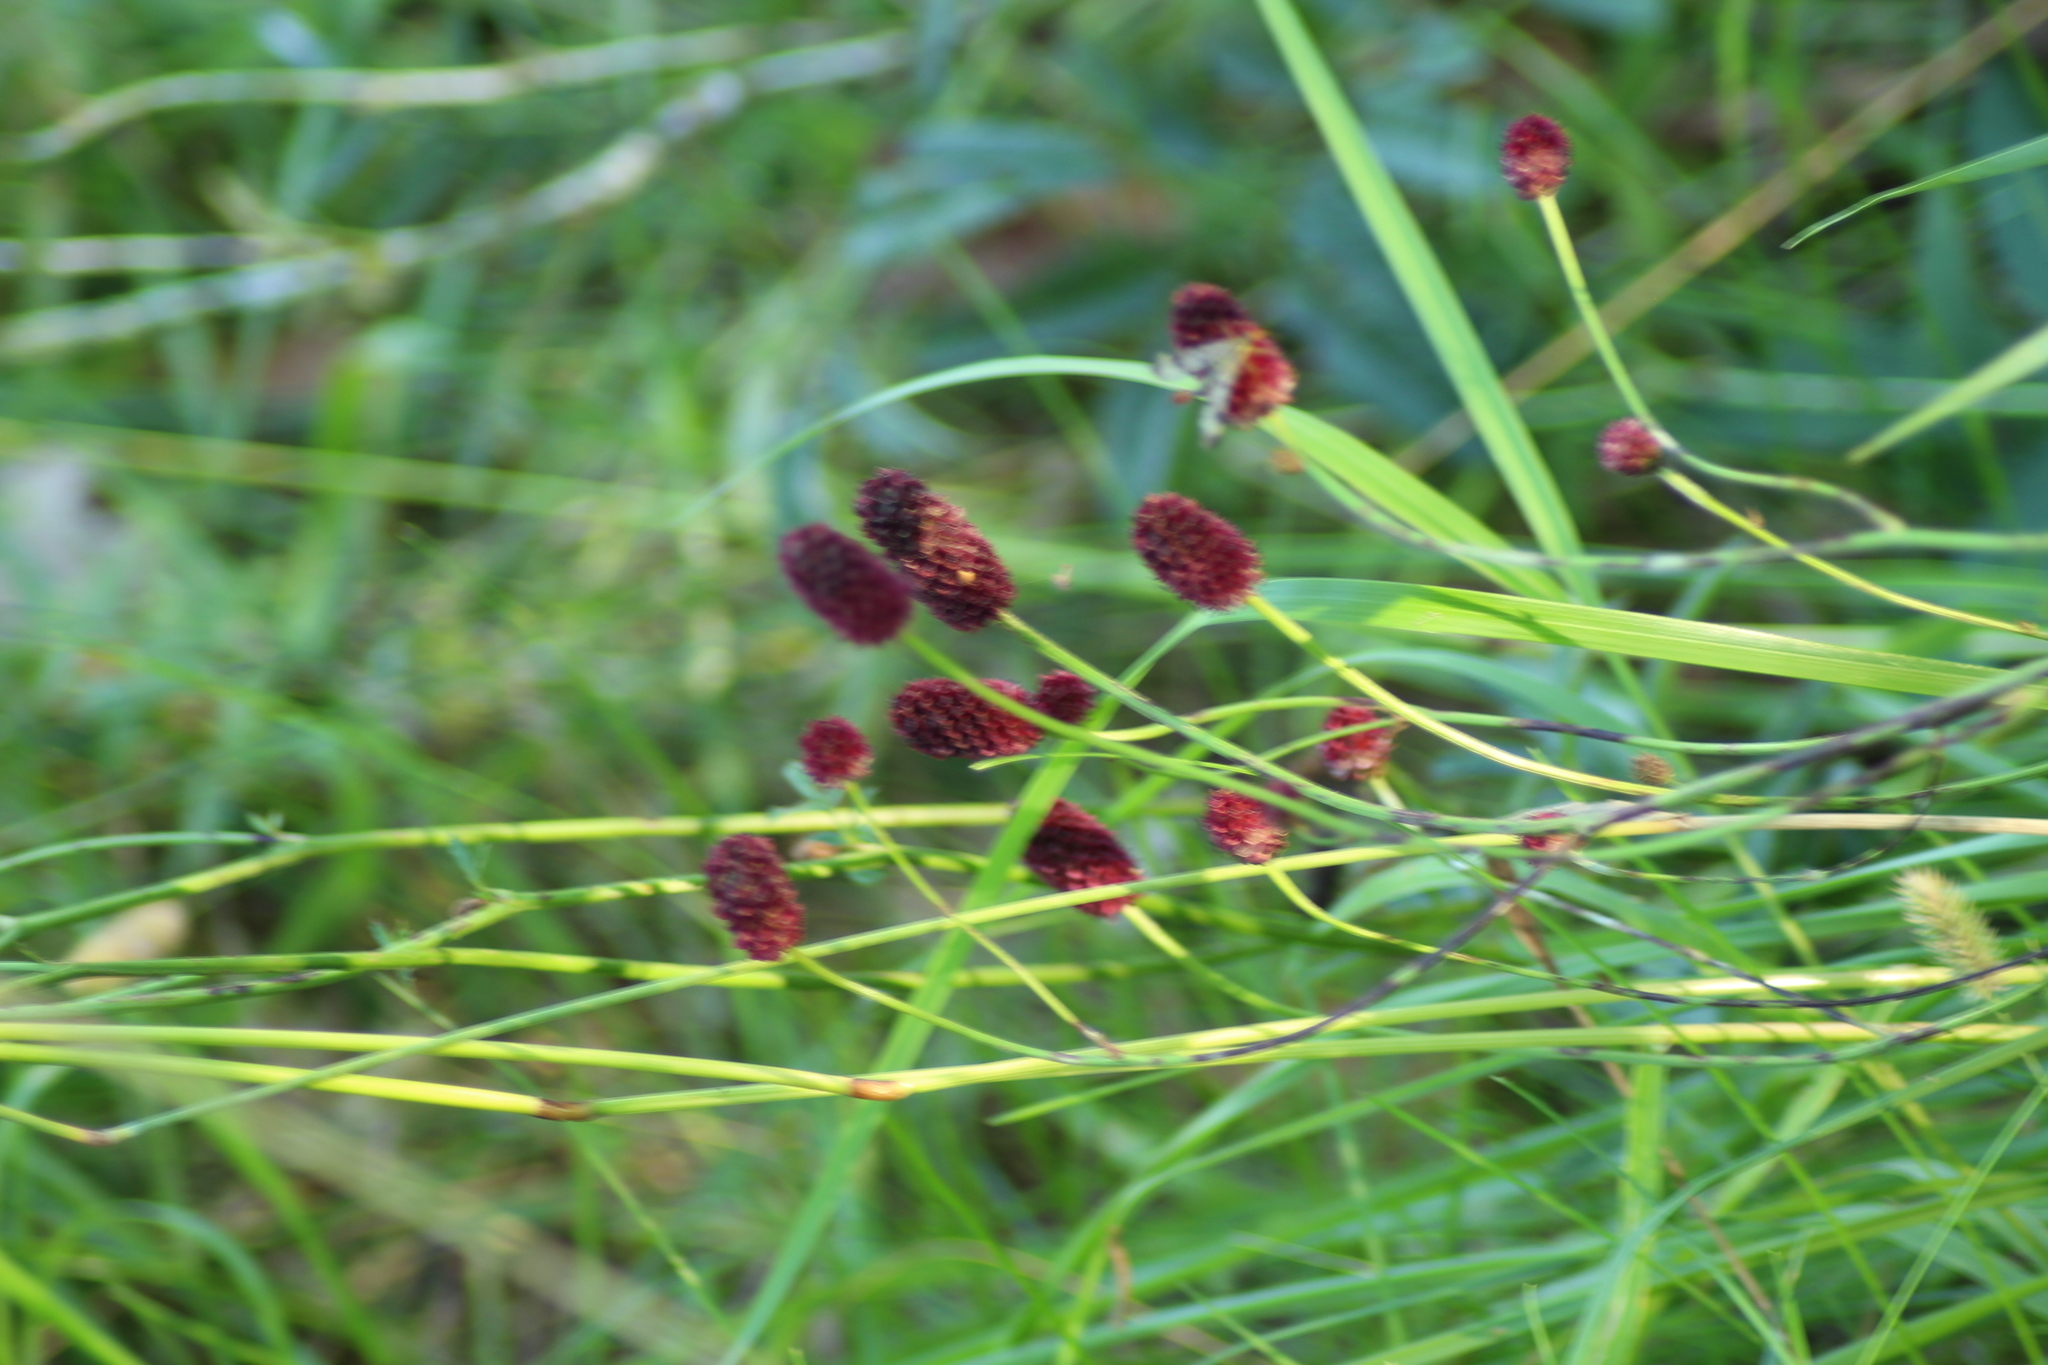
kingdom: Plantae
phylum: Tracheophyta
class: Magnoliopsida
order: Rosales
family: Rosaceae
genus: Sanguisorba
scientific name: Sanguisorba officinalis
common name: Great burnet
